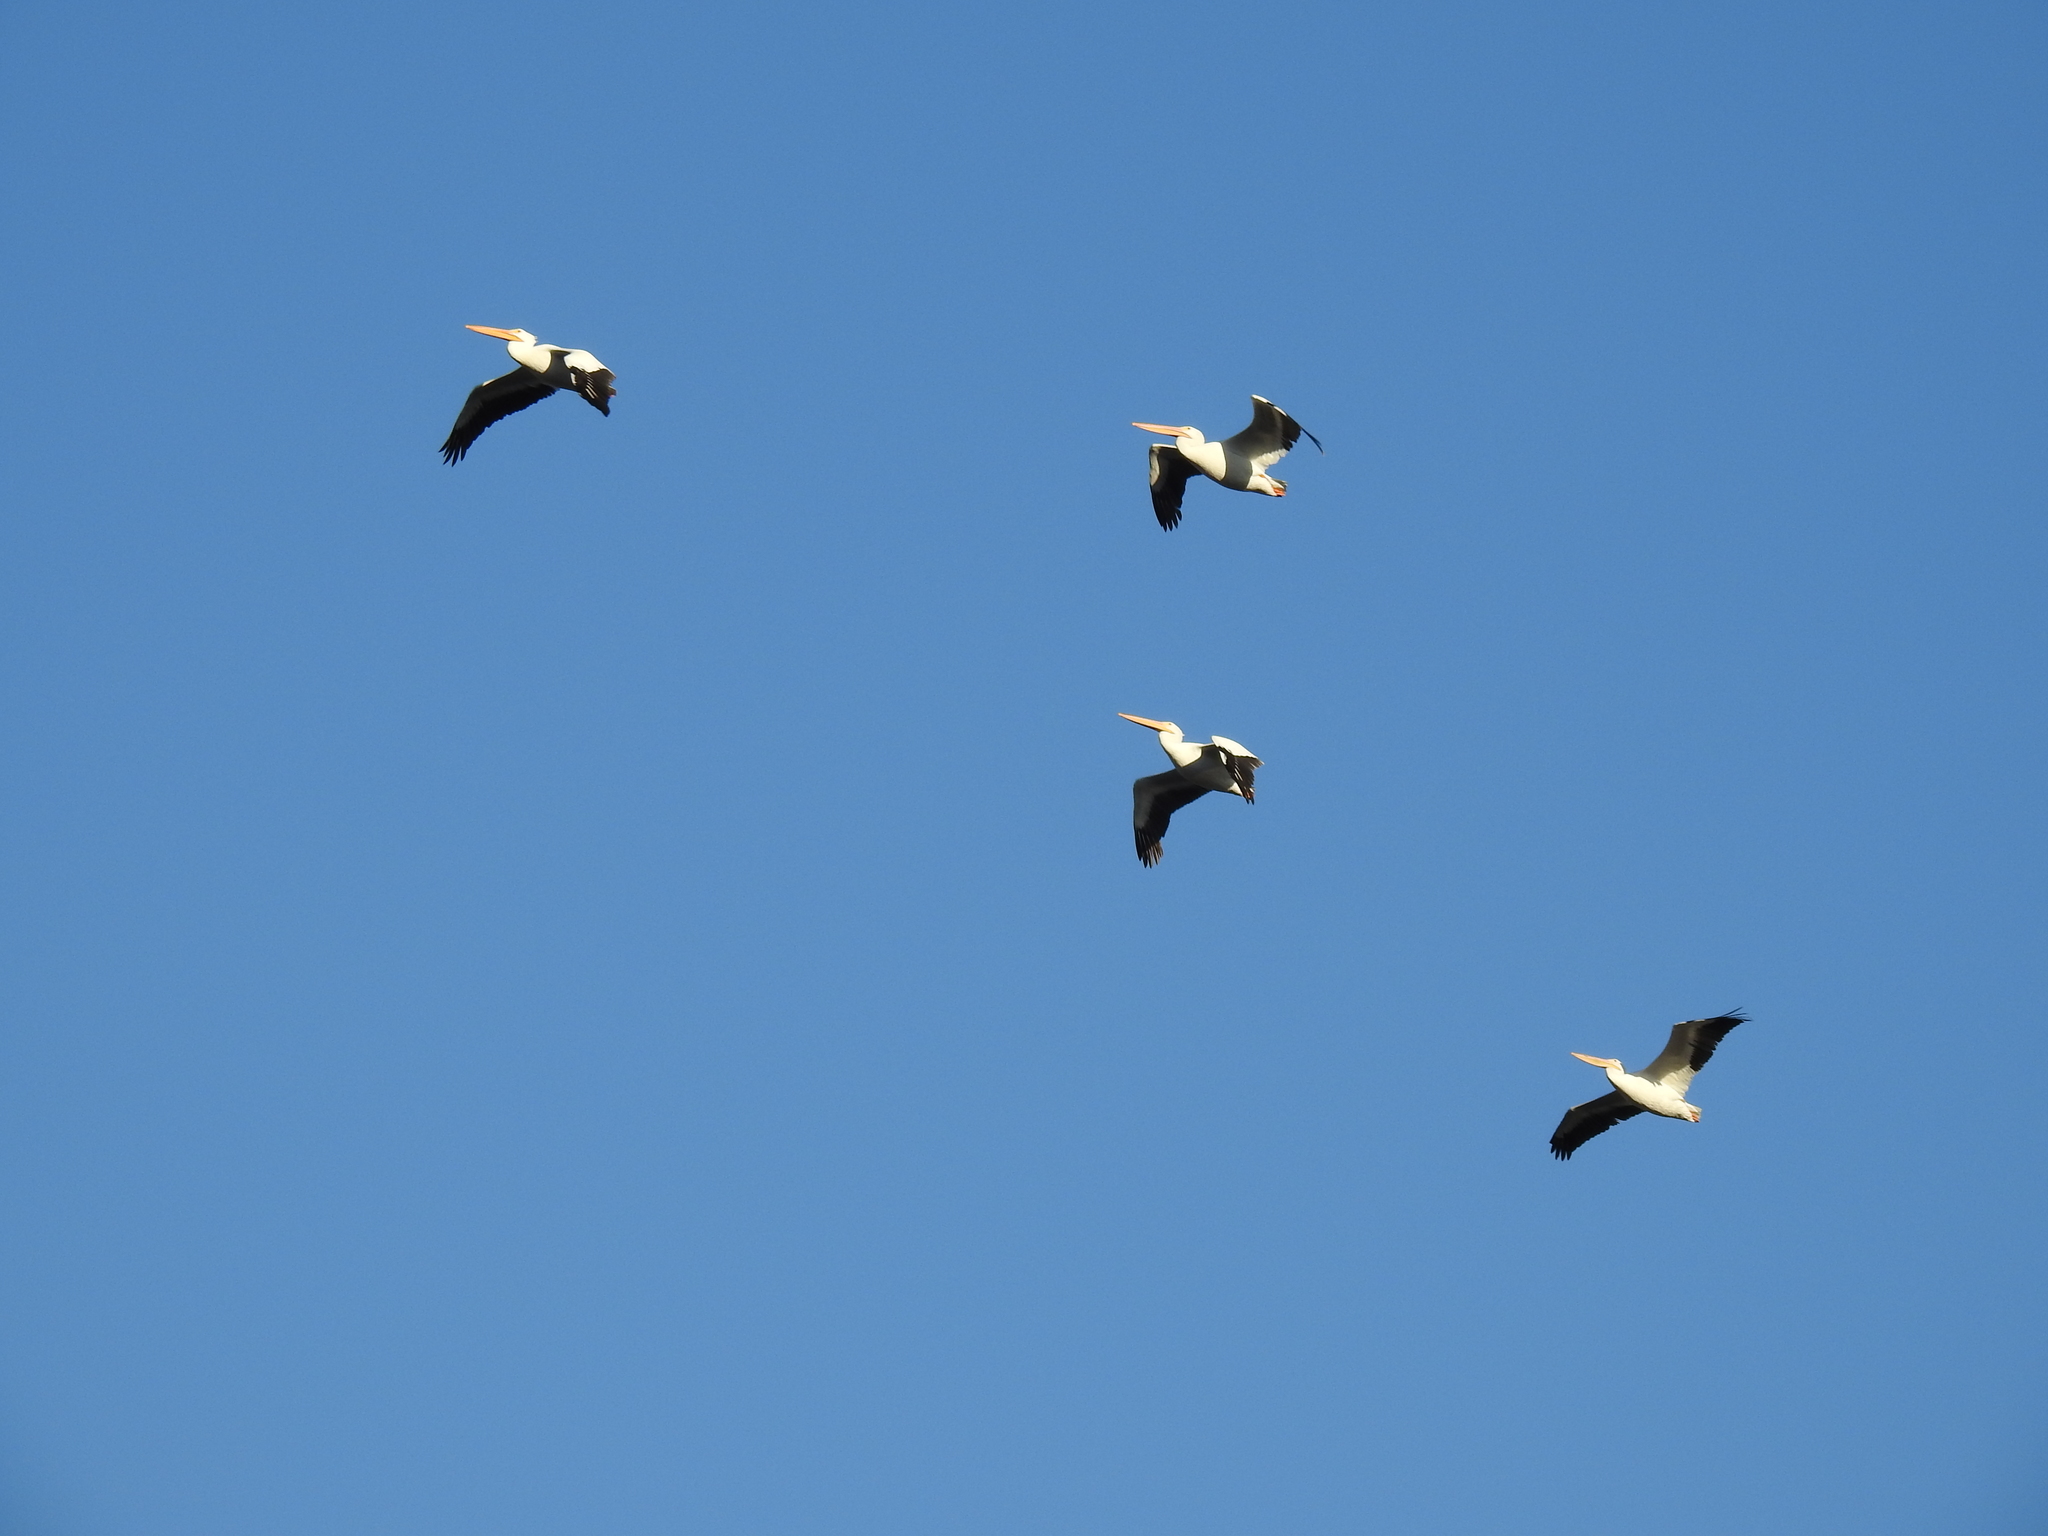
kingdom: Animalia
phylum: Chordata
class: Aves
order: Pelecaniformes
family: Pelecanidae
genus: Pelecanus
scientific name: Pelecanus erythrorhynchos
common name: American white pelican
